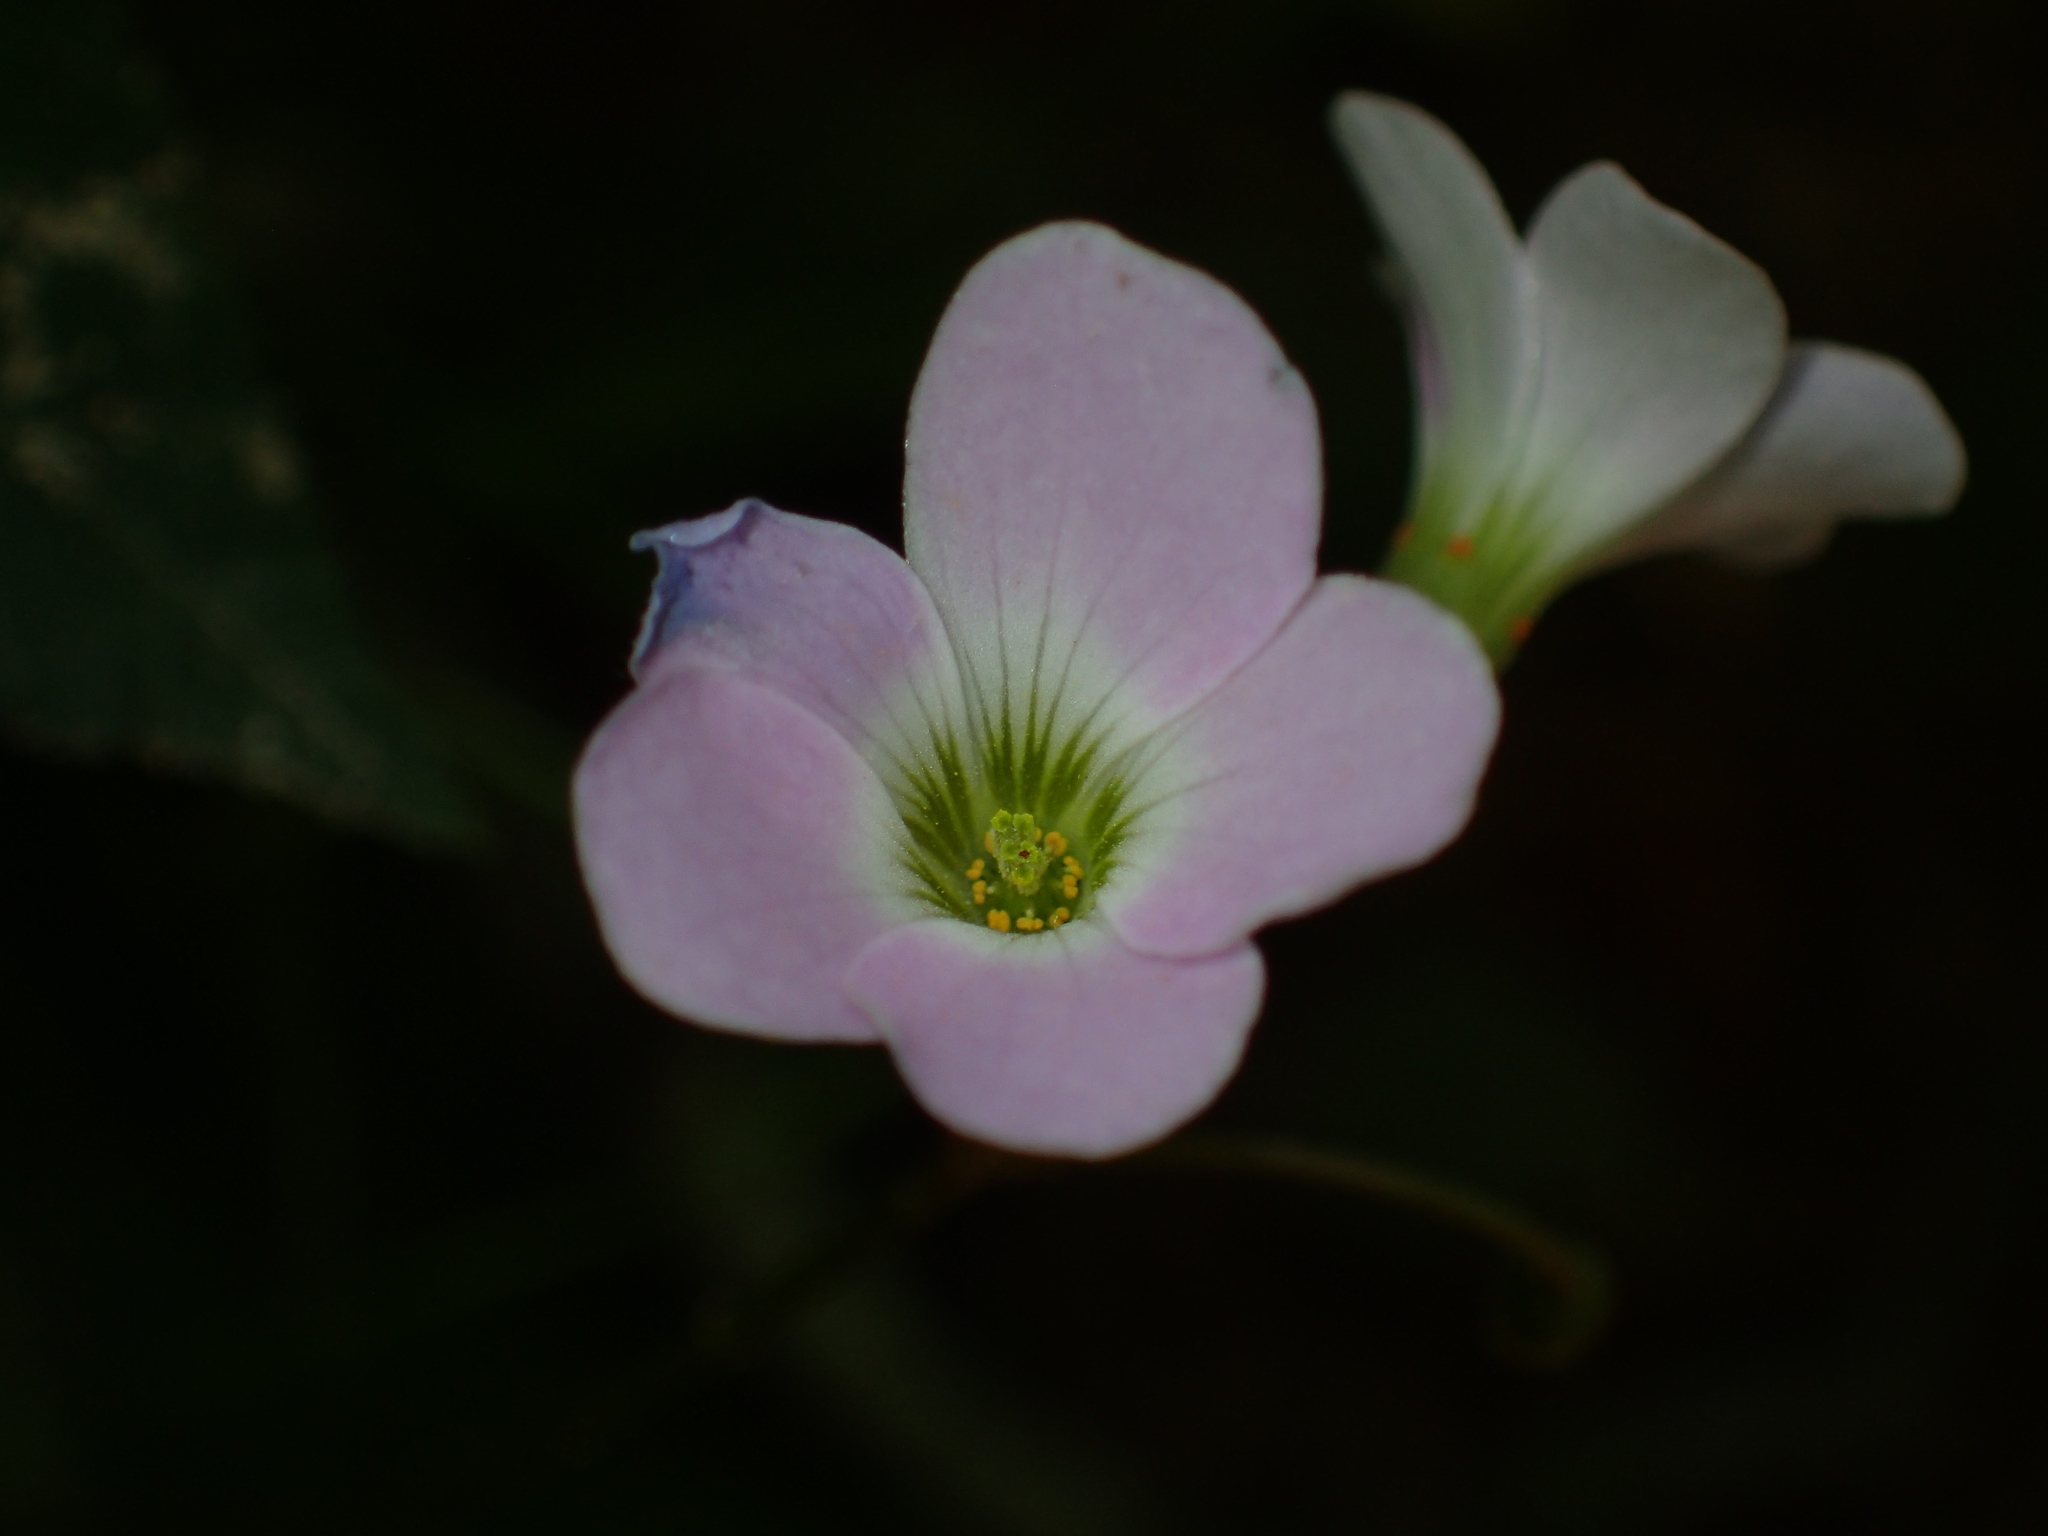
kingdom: Plantae
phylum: Tracheophyta
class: Magnoliopsida
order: Oxalidales
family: Oxalidaceae
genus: Oxalis
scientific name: Oxalis violacea
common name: Violet wood-sorrel
